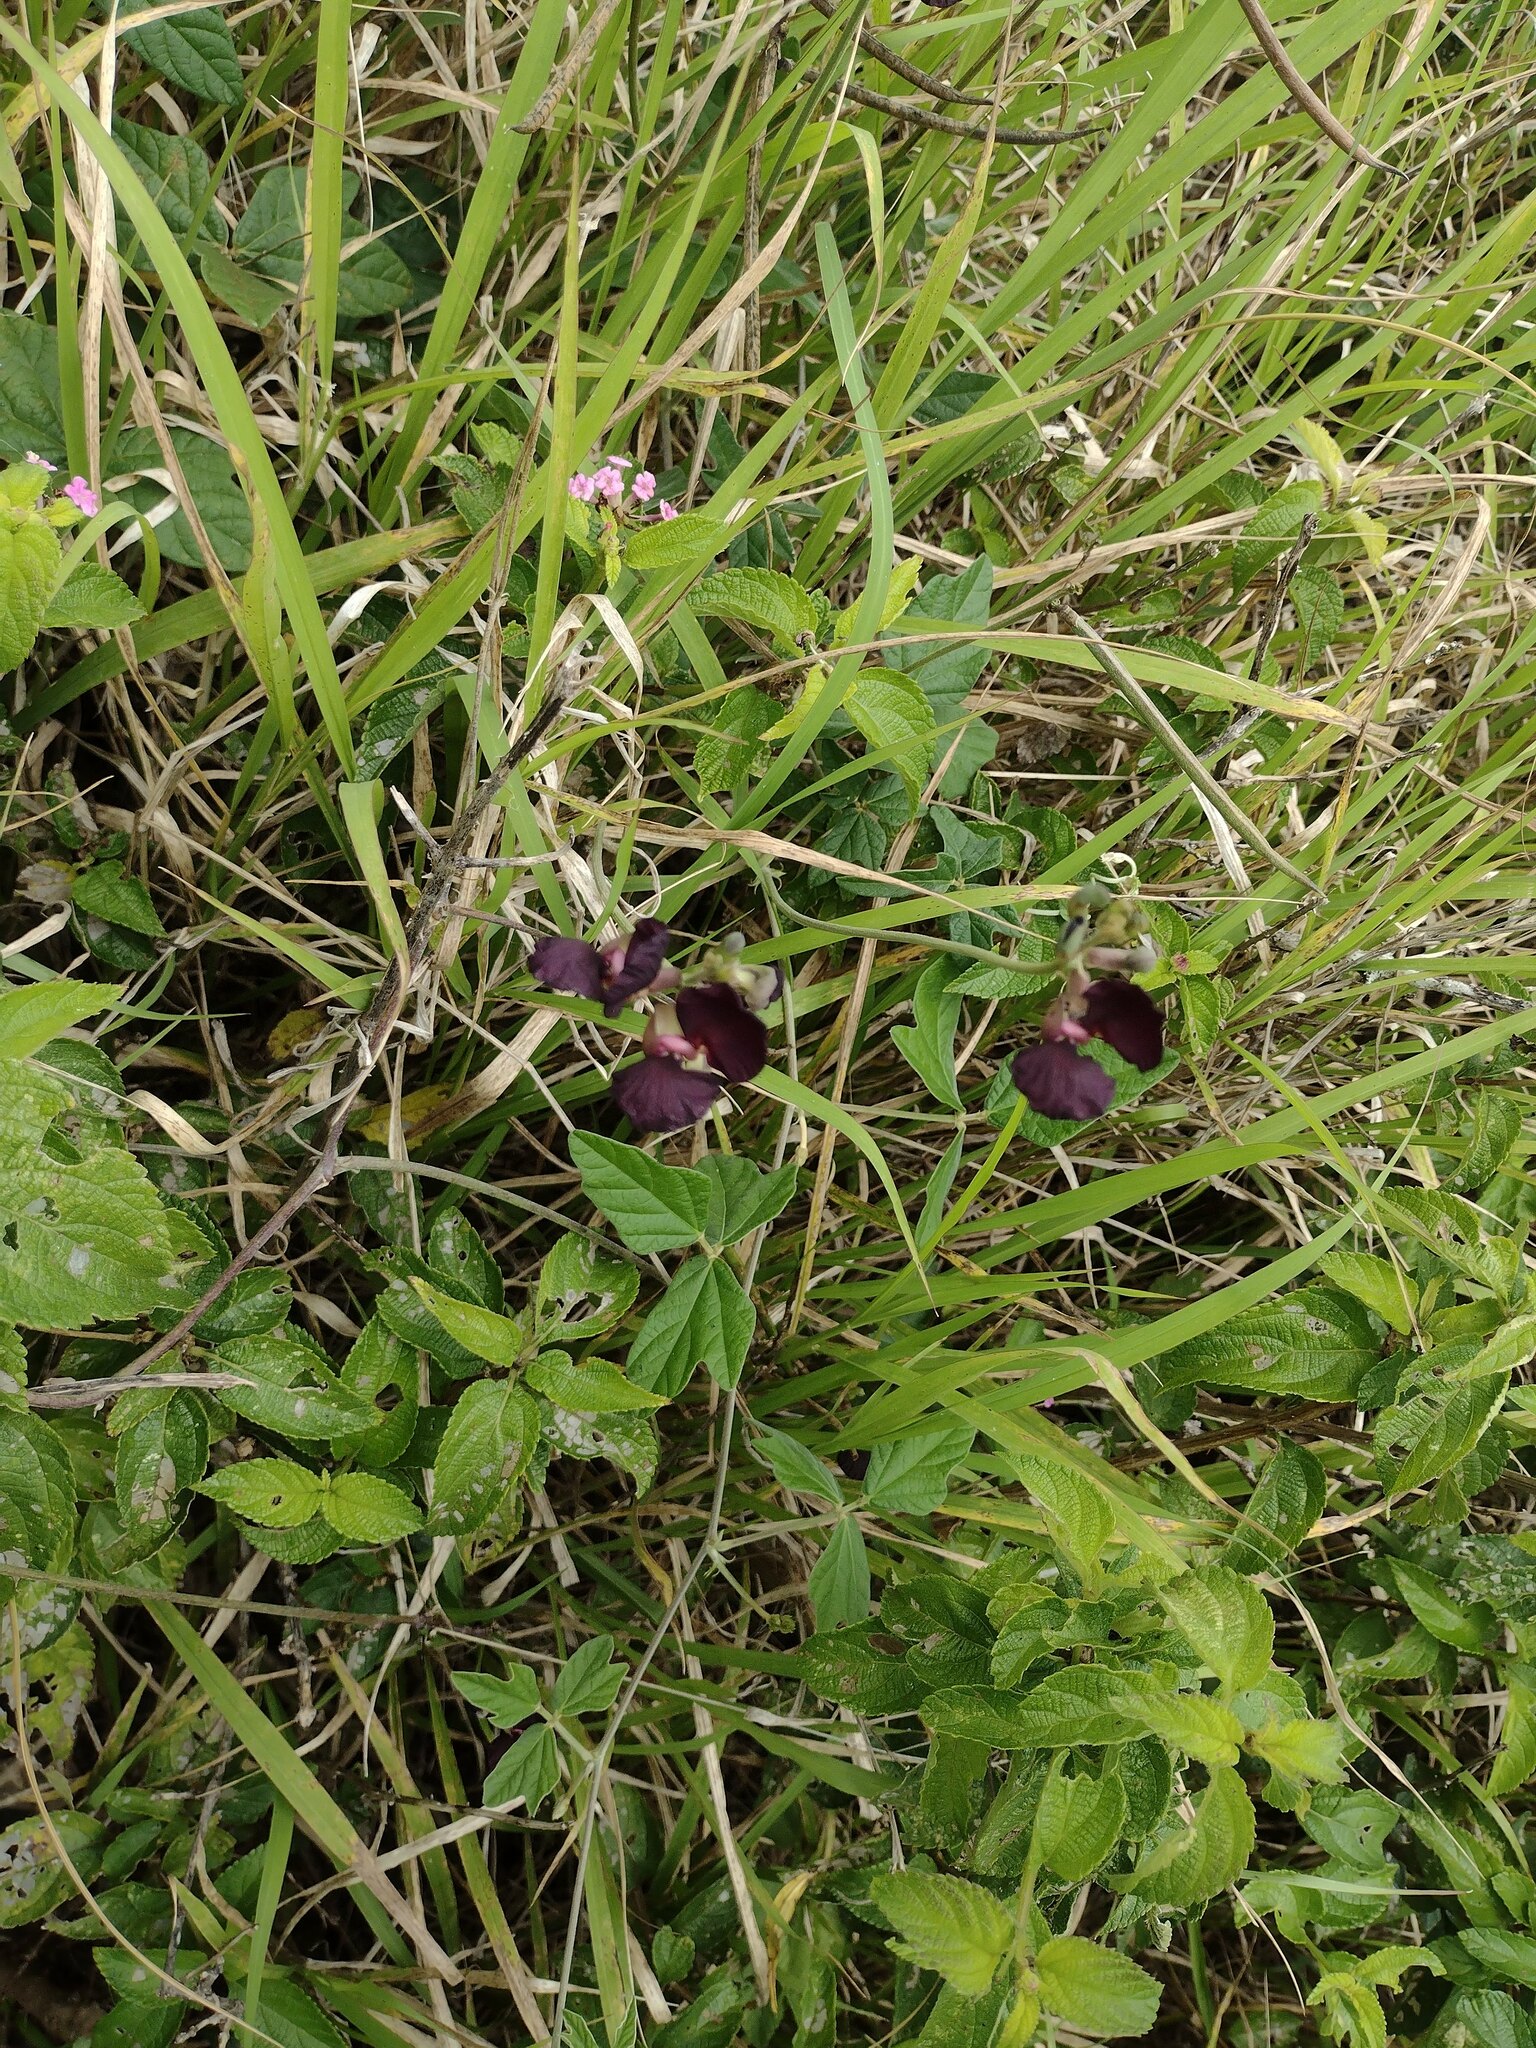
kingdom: Plantae
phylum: Tracheophyta
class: Magnoliopsida
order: Fabales
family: Fabaceae
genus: Macroptilium
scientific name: Macroptilium atropurpureum
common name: Purple bushbean
